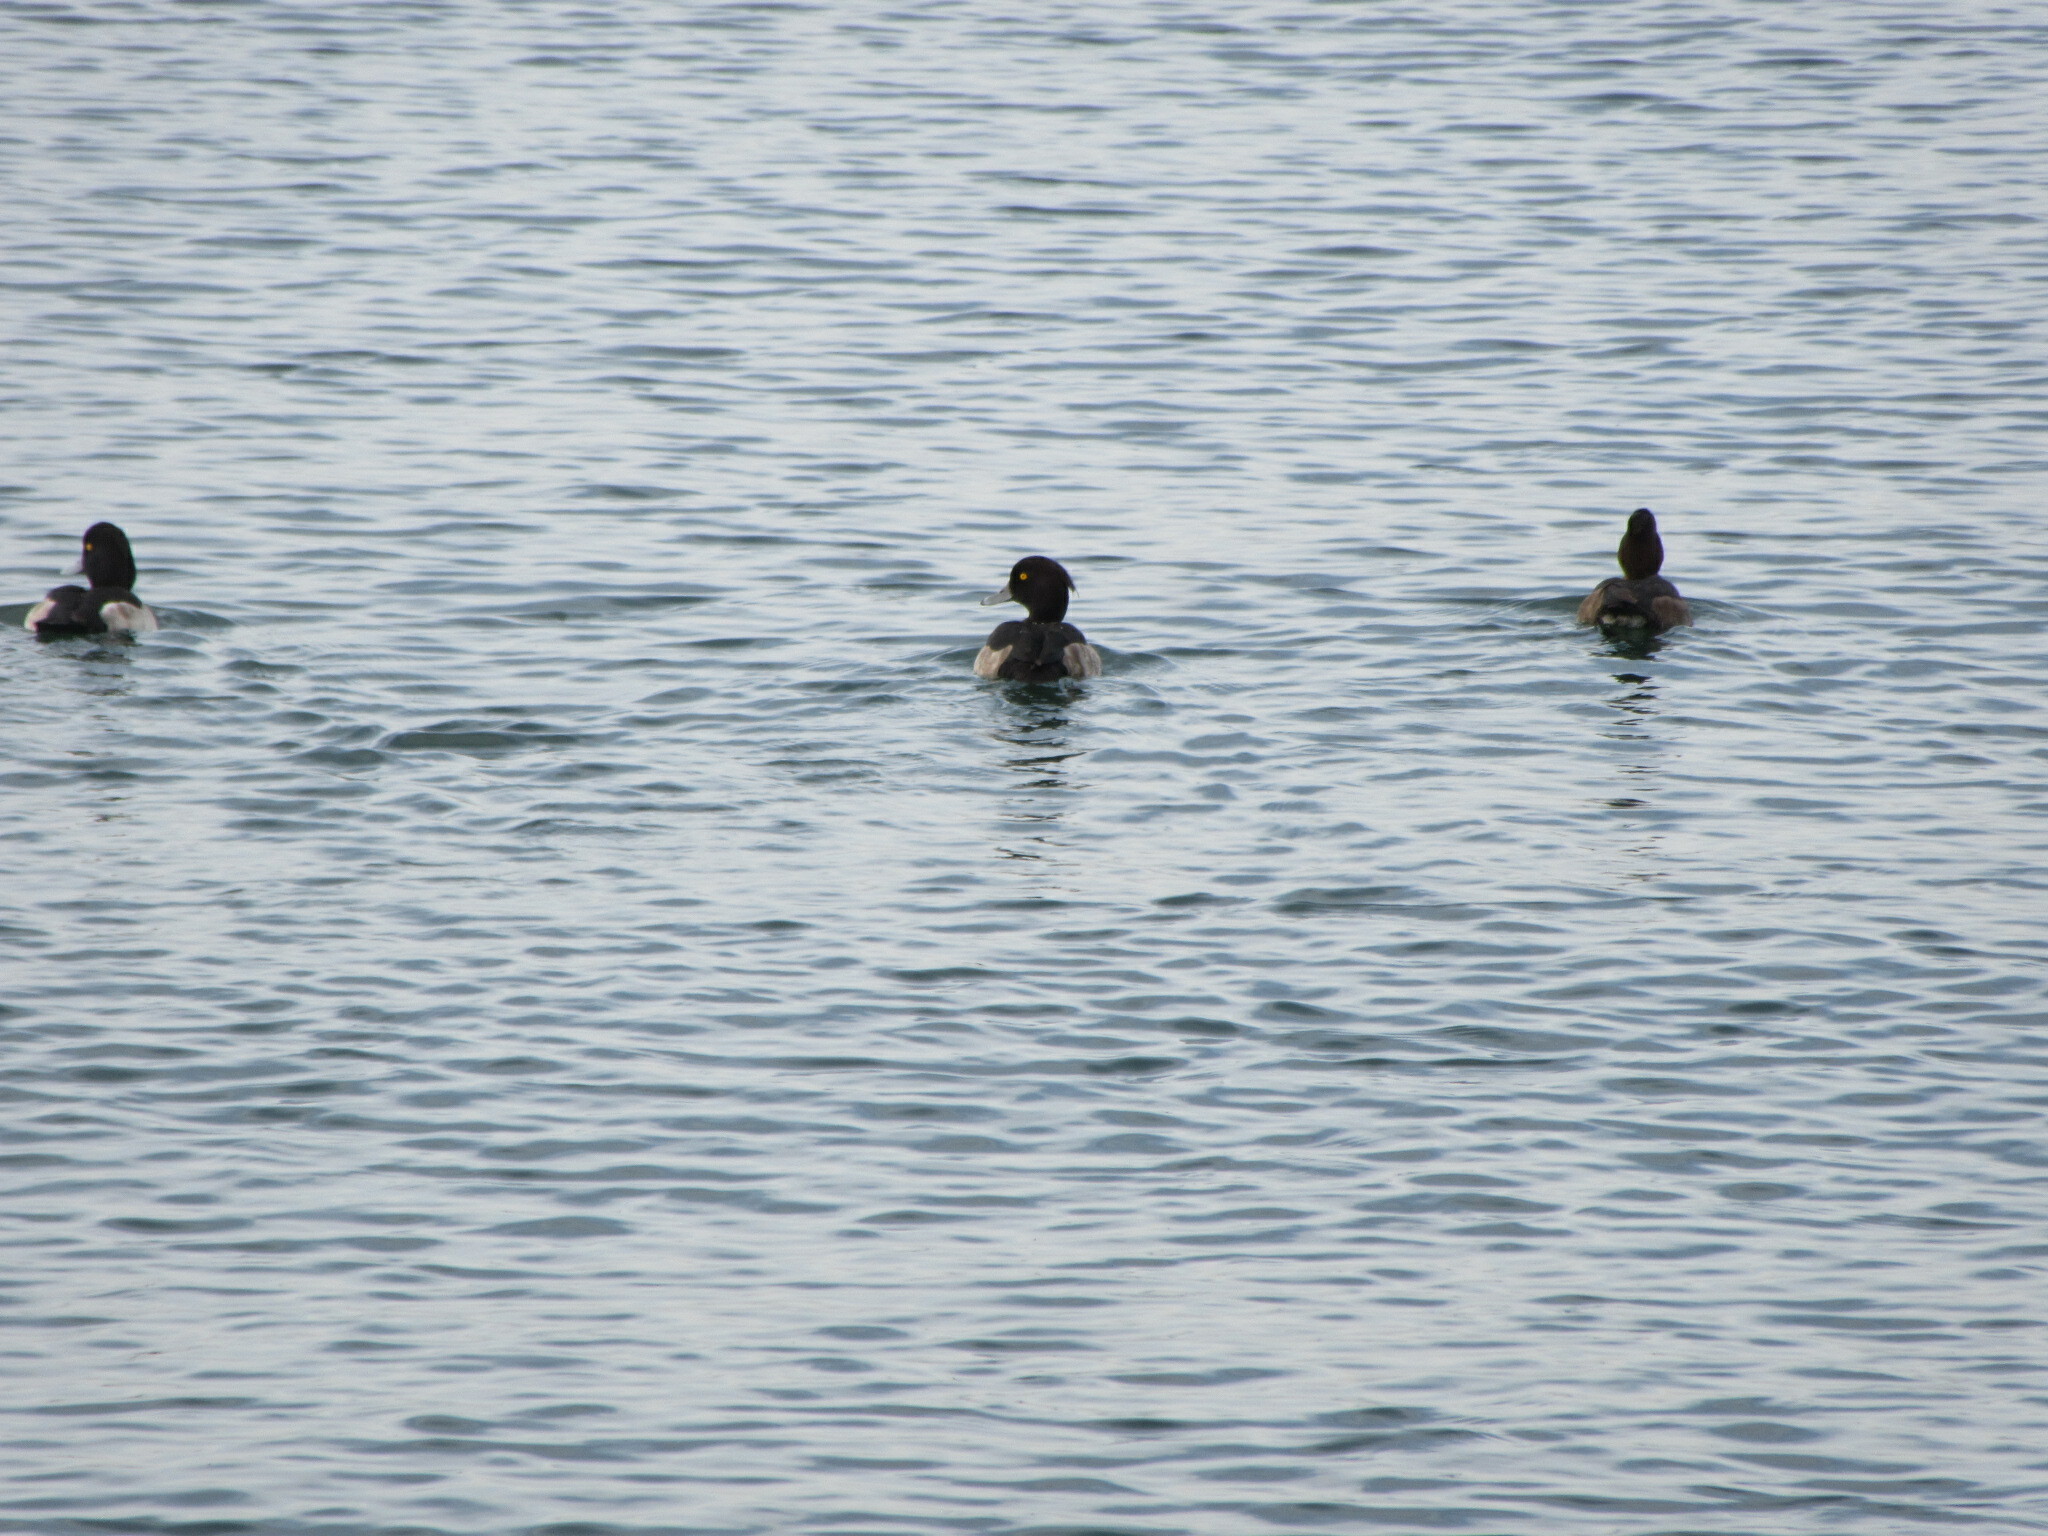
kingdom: Animalia
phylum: Chordata
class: Aves
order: Anseriformes
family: Anatidae
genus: Aythya
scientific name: Aythya fuligula
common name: Tufted duck
